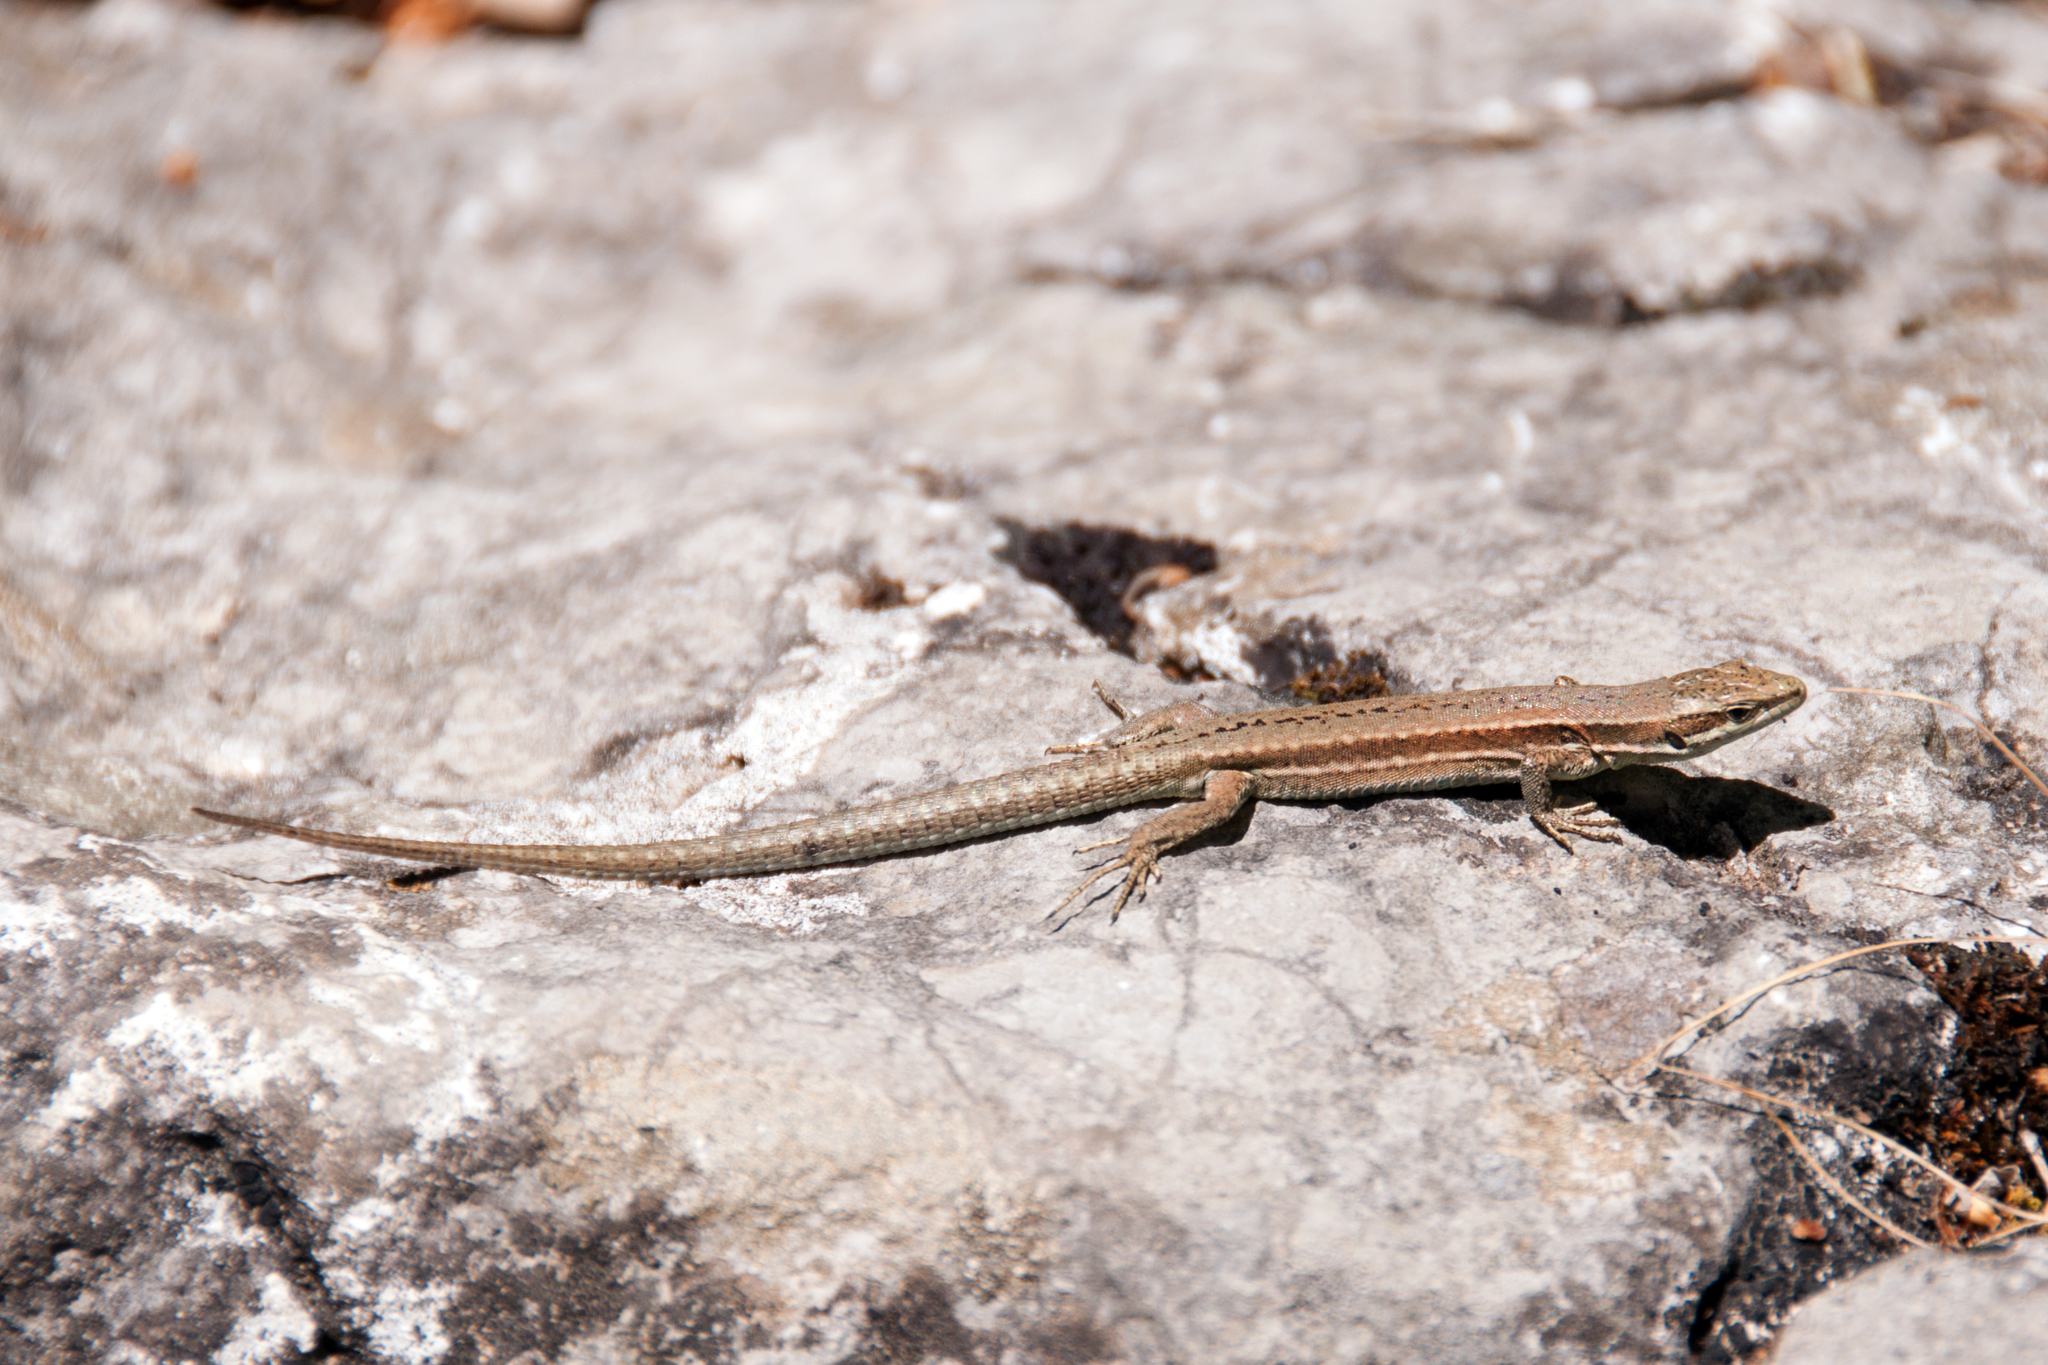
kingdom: Animalia
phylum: Chordata
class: Squamata
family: Lacertidae
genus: Podarcis
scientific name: Podarcis muralis
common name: Common wall lizard
